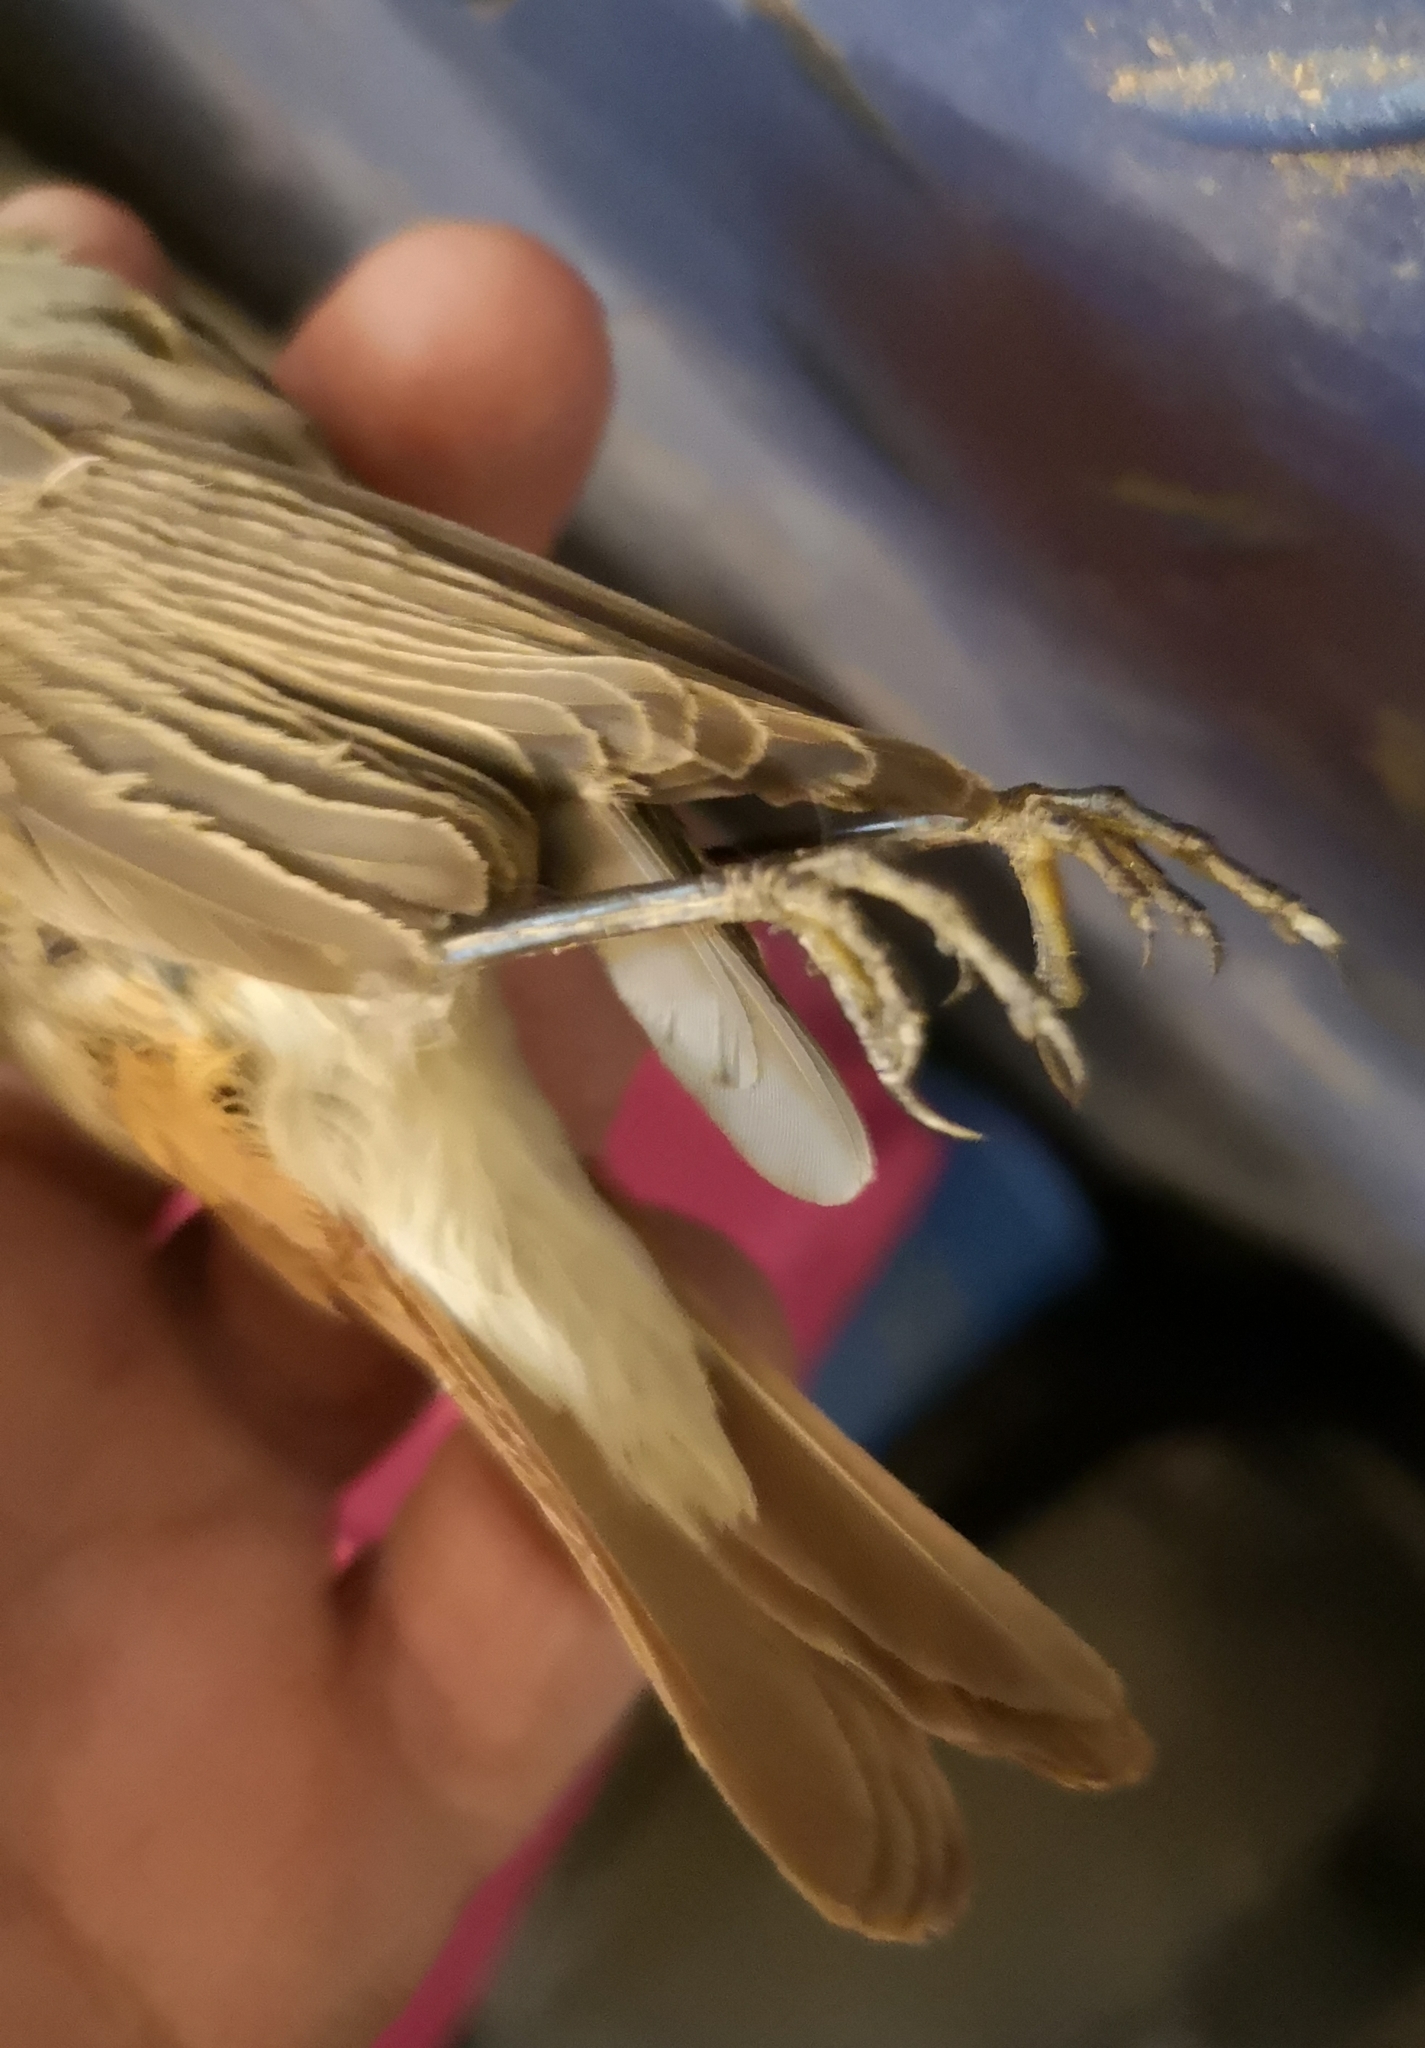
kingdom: Animalia
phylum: Chordata
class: Aves
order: Passeriformes
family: Muscicapidae
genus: Phoenicurus
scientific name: Phoenicurus phoenicurus
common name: Common redstart
